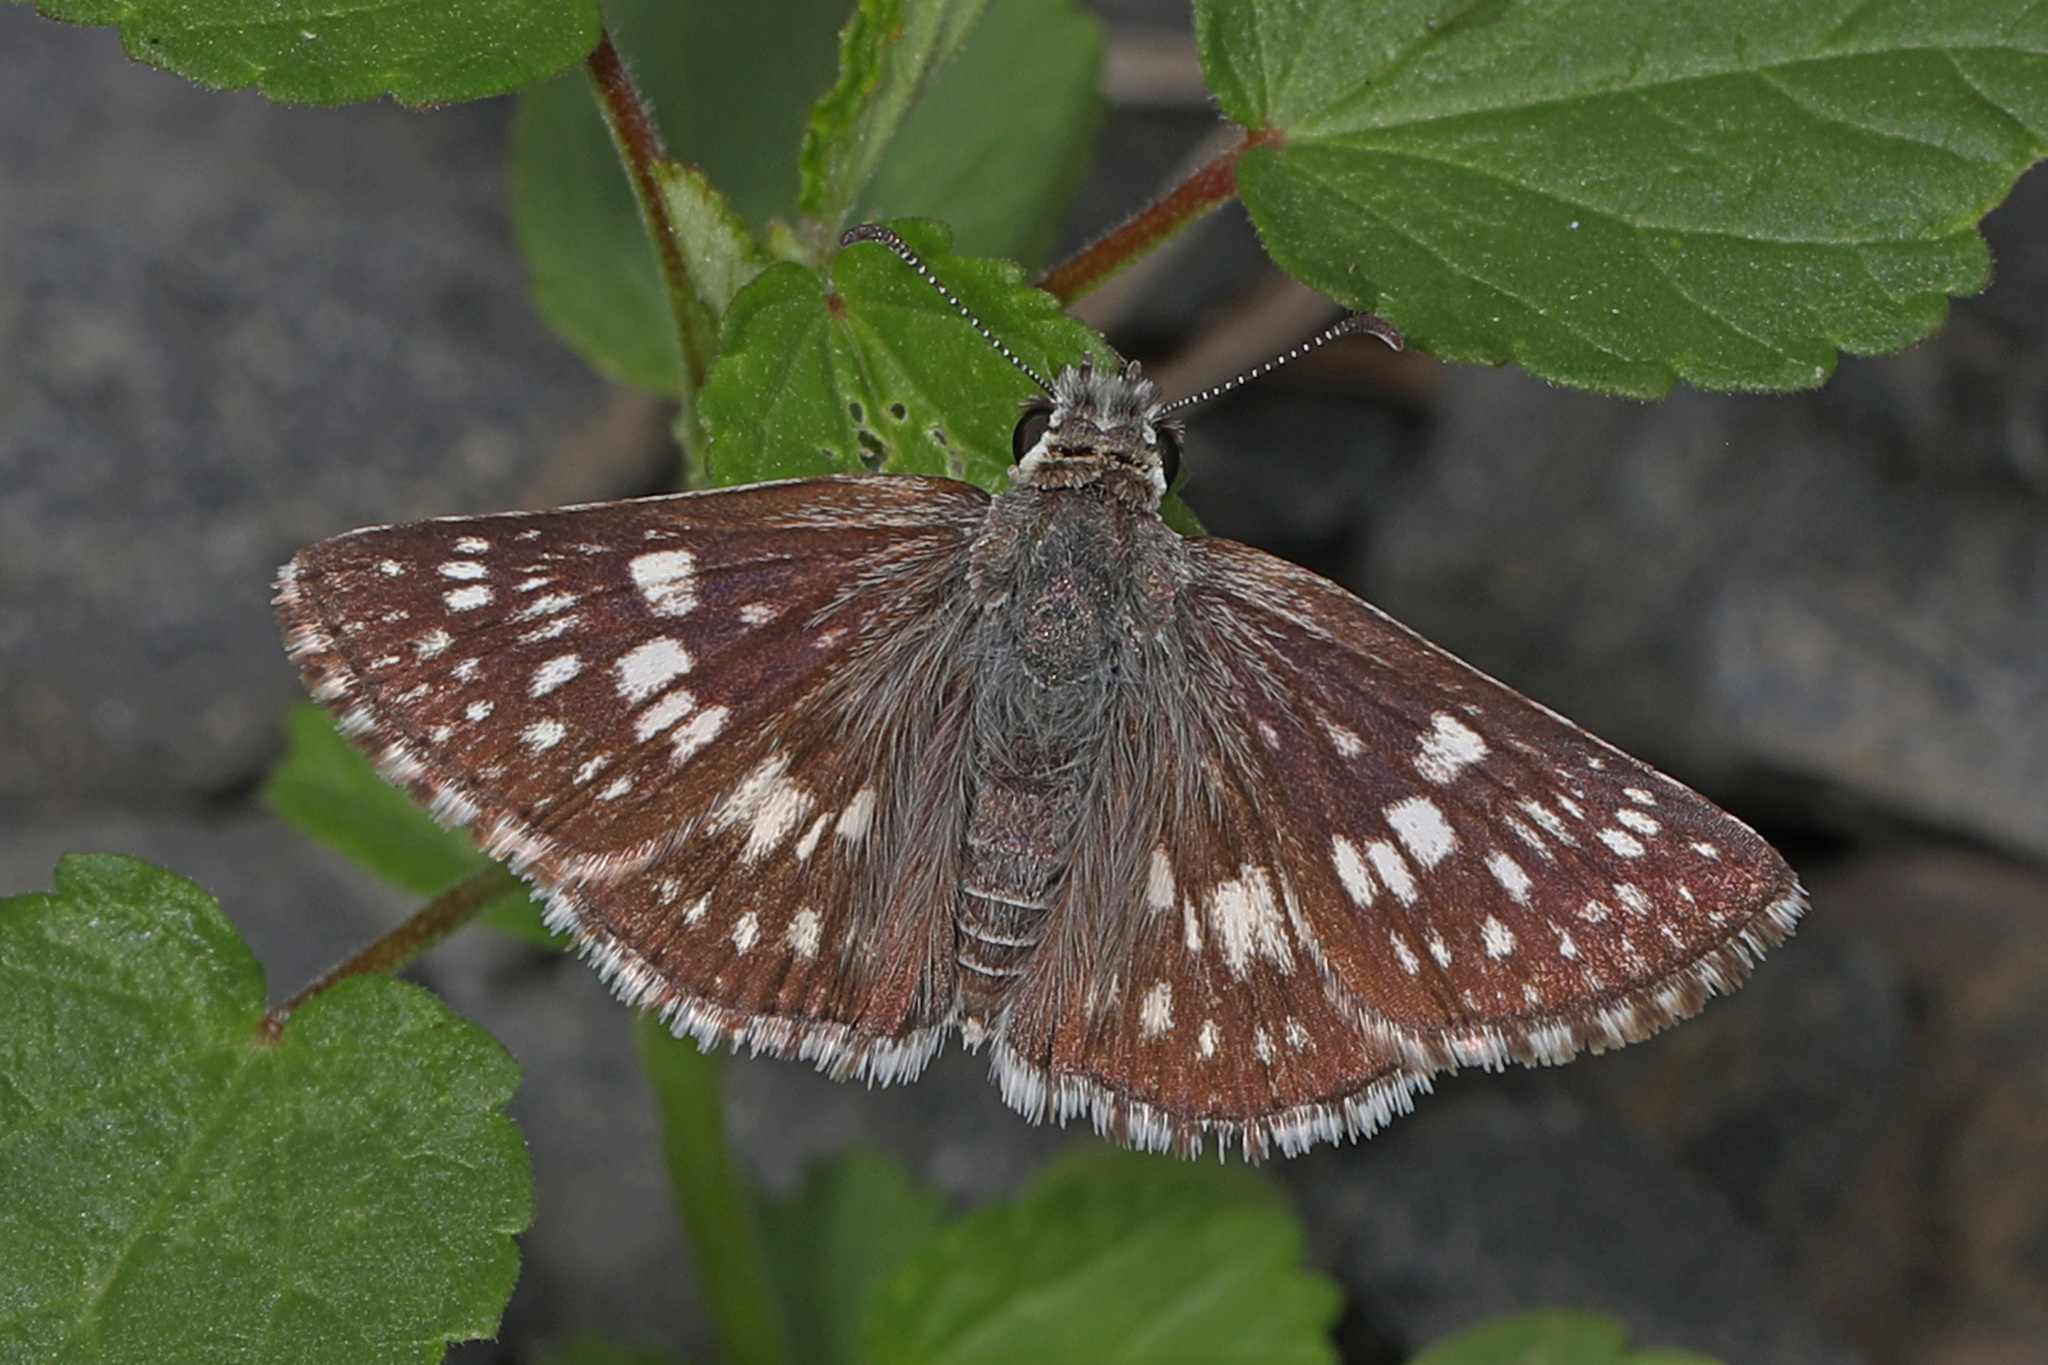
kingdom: Animalia
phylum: Arthropoda
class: Insecta
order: Lepidoptera
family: Hesperiidae
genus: Burnsius
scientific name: Burnsius communis
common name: Common checkered-skipper
